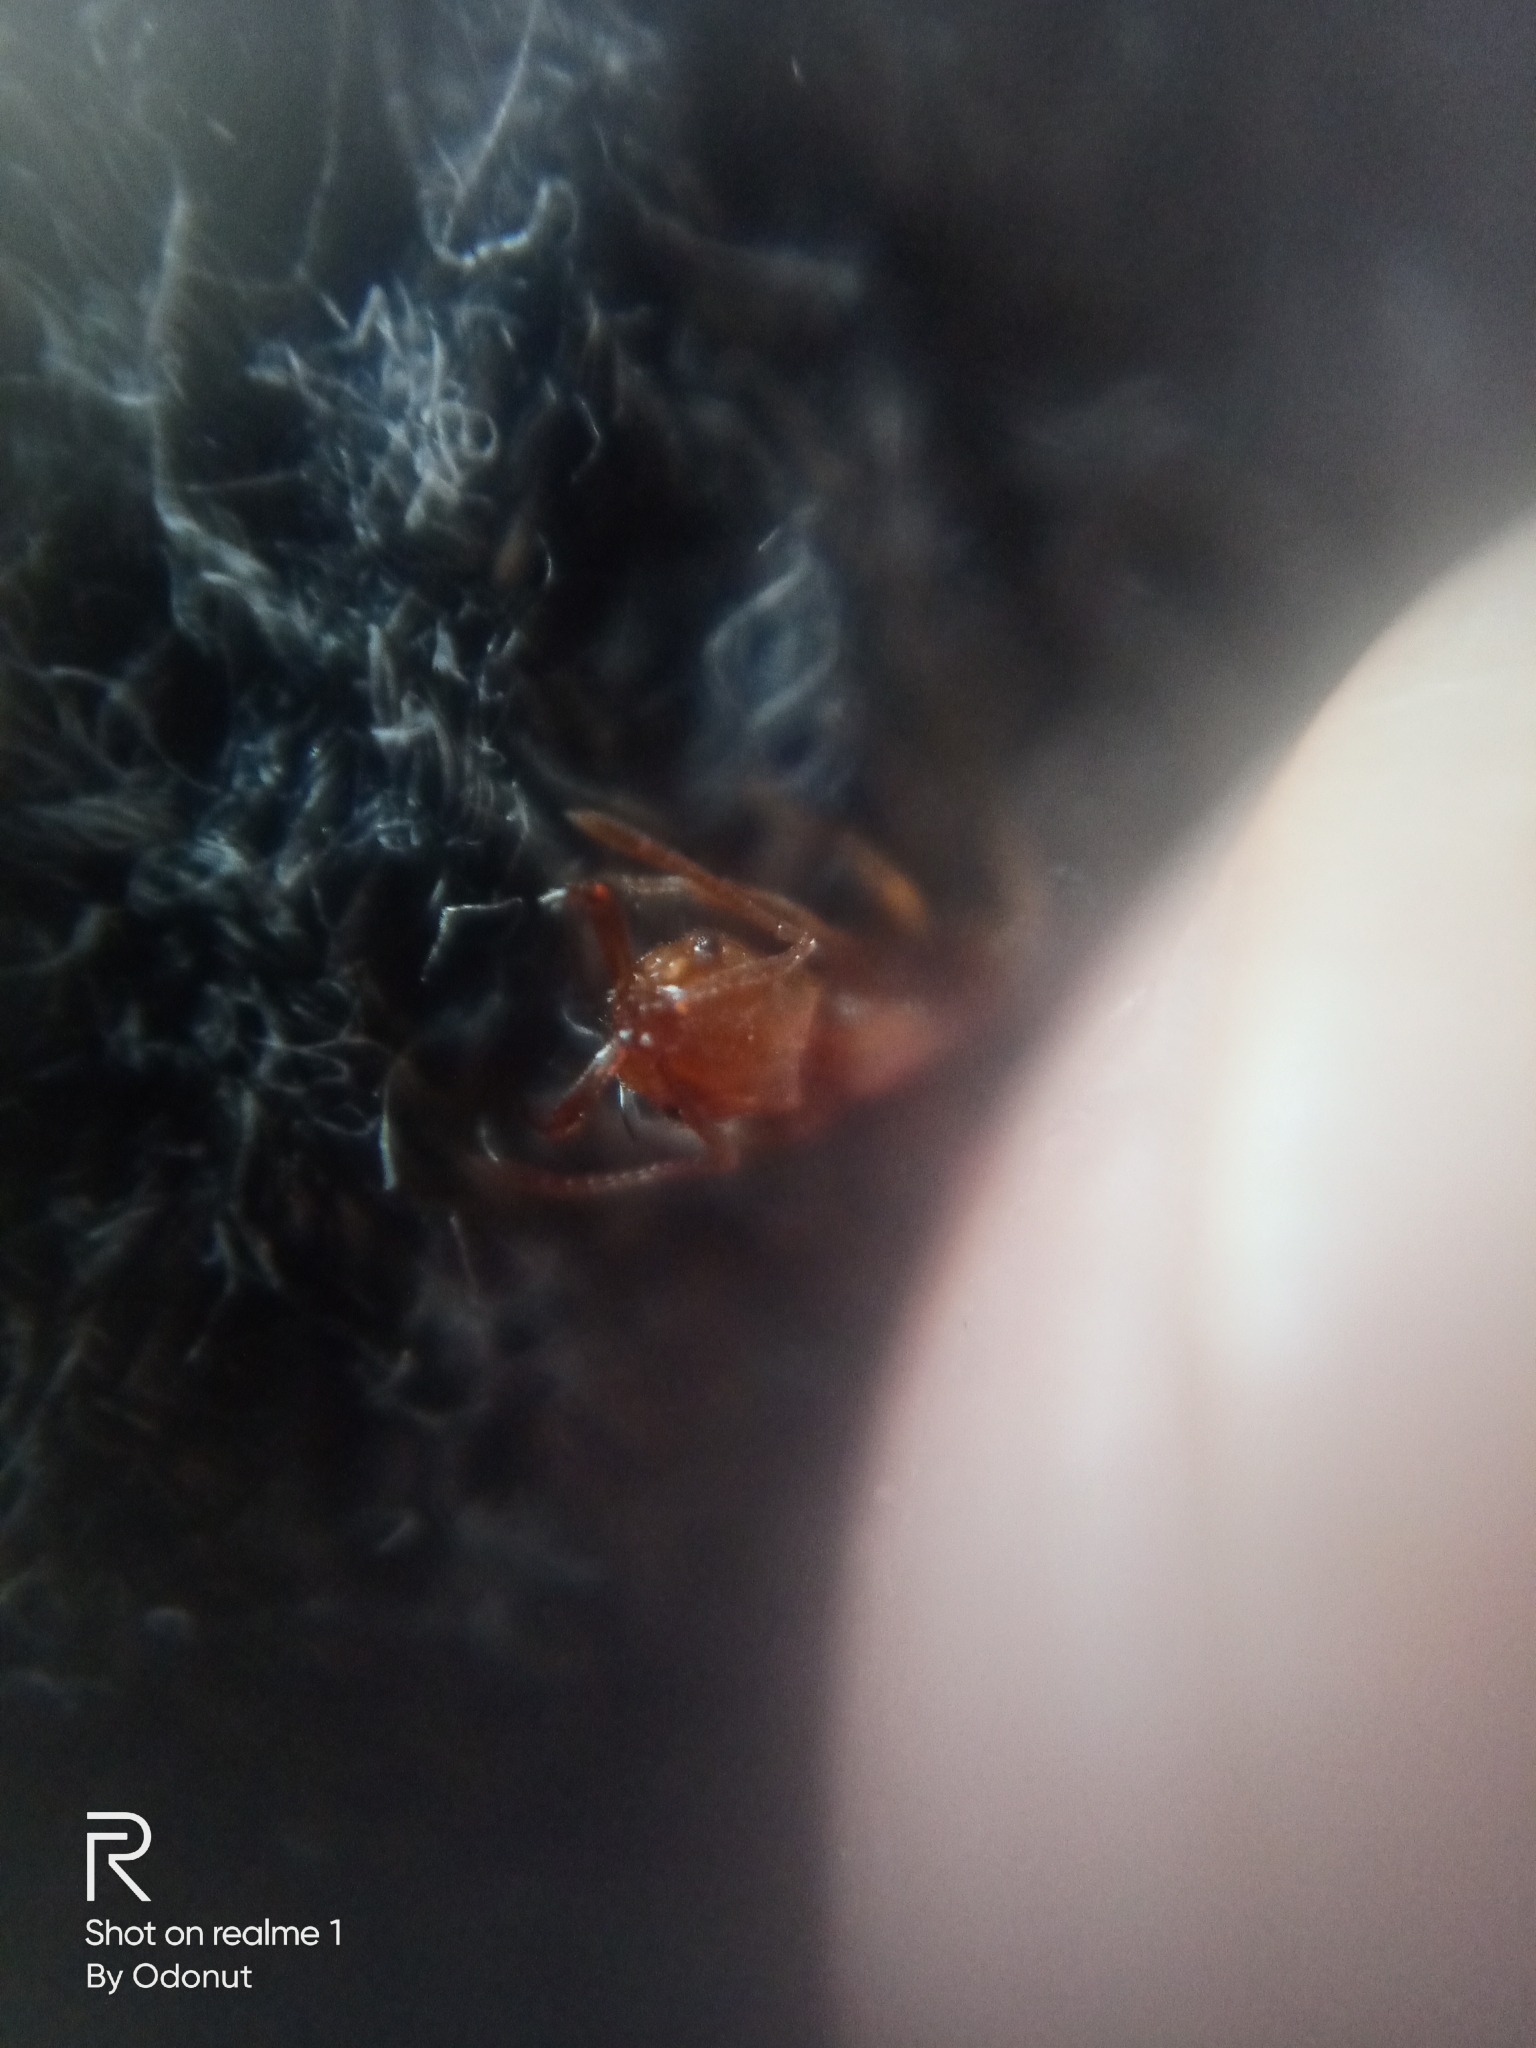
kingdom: Animalia
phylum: Arthropoda
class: Insecta
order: Hymenoptera
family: Formicidae
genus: Anochetus
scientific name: Anochetus graeffei
